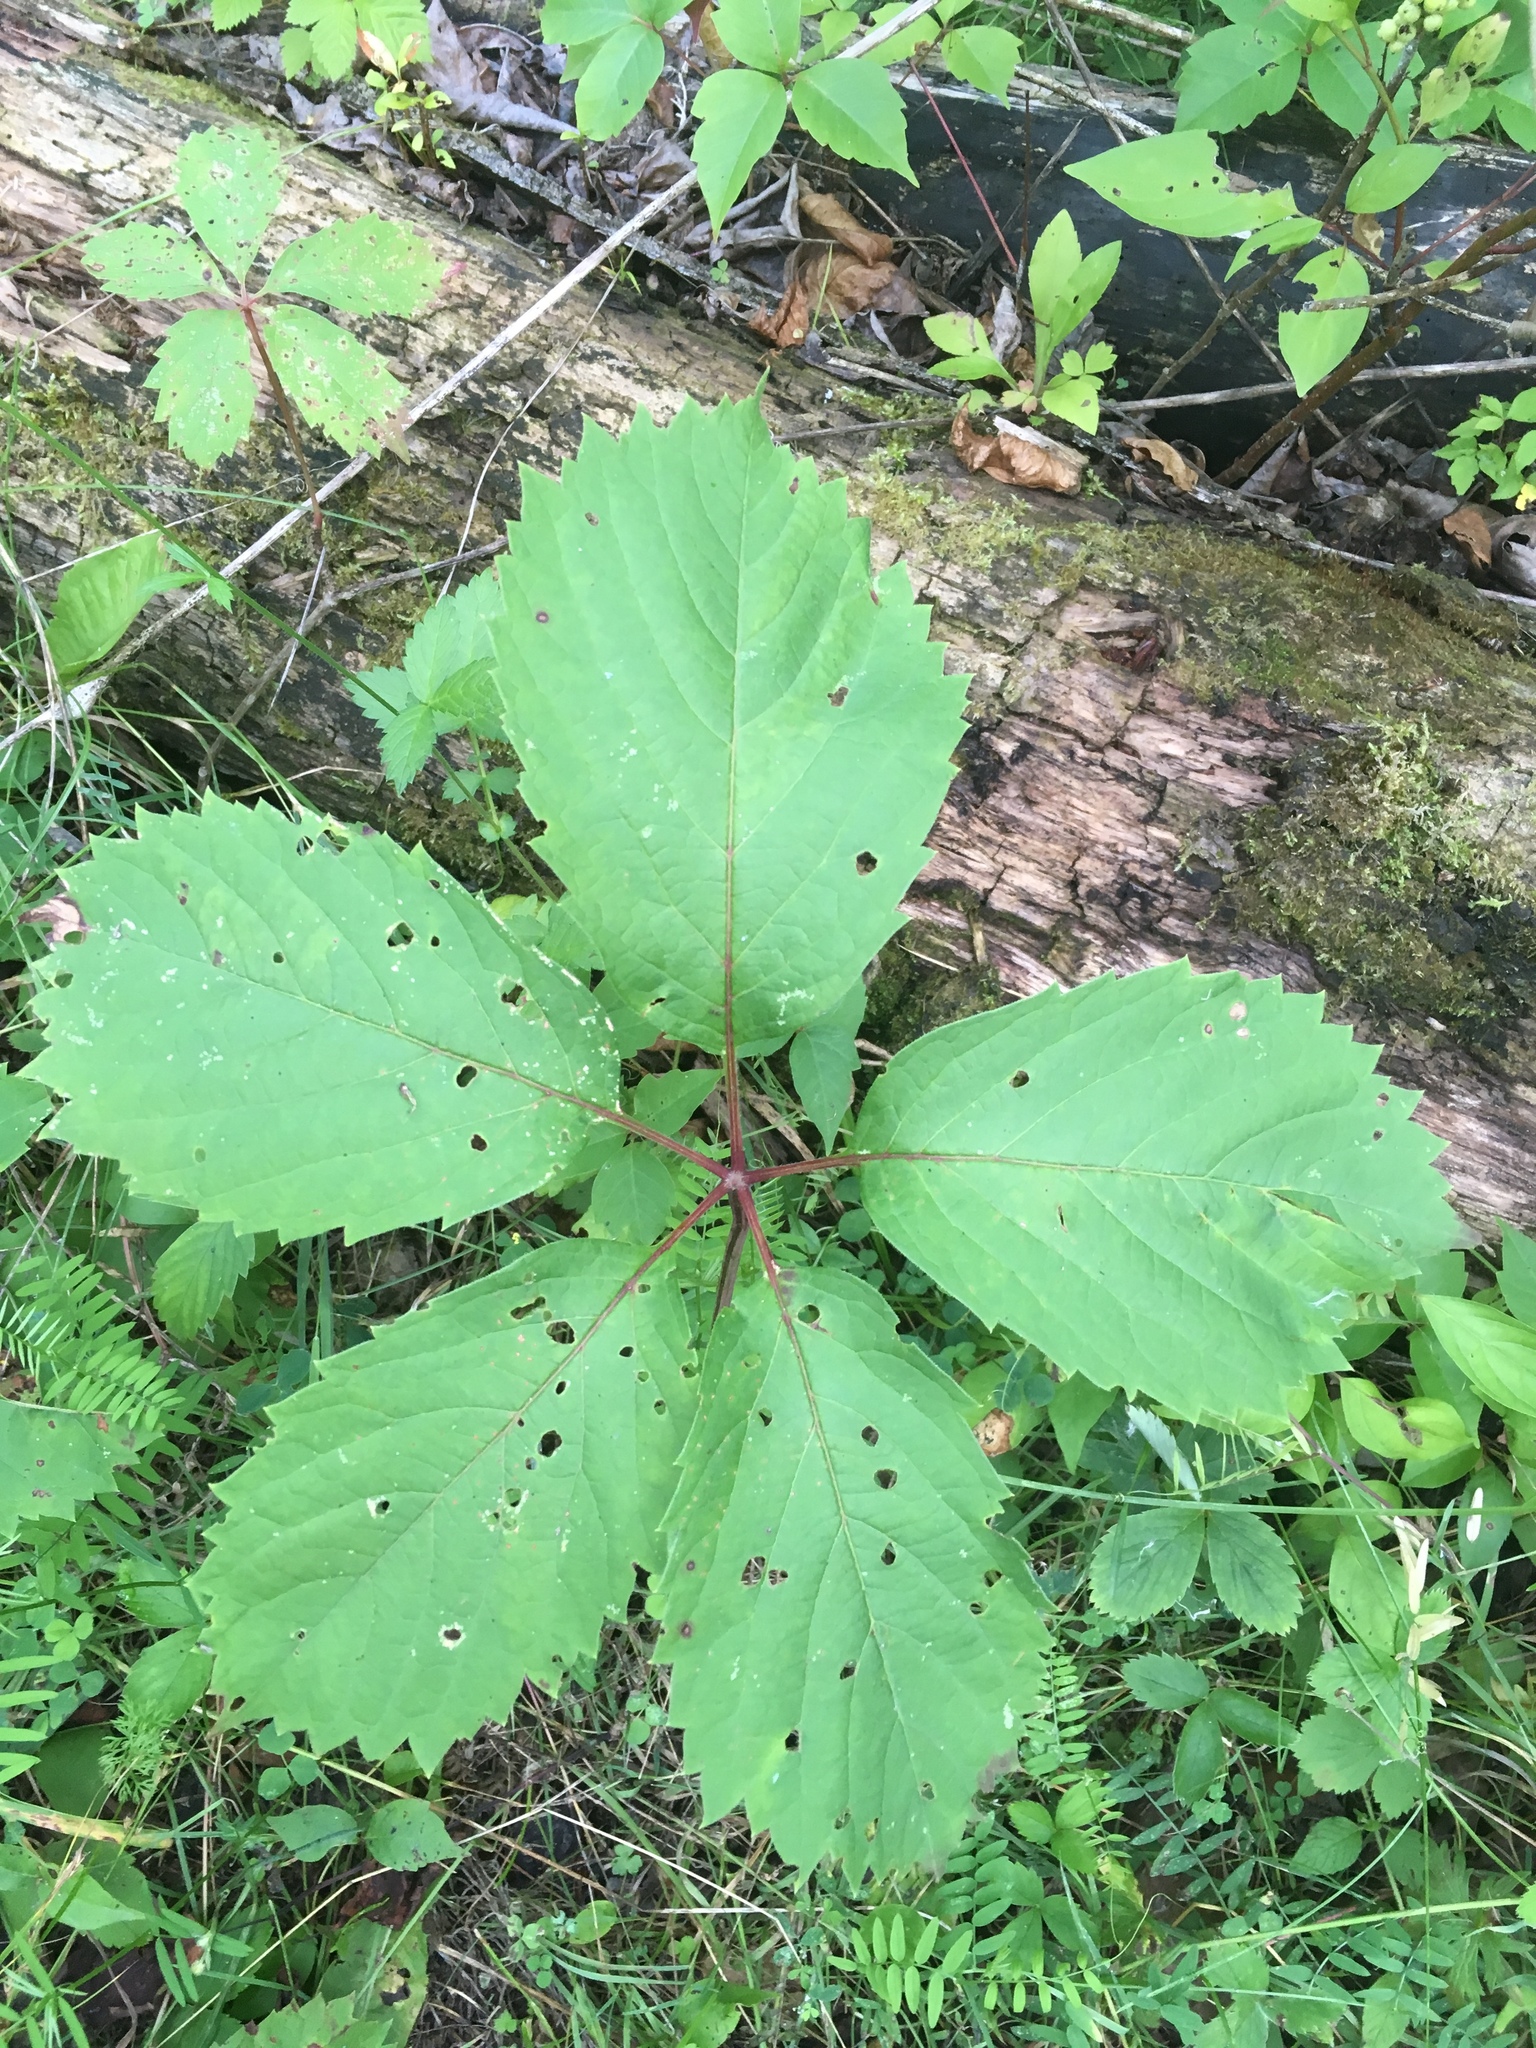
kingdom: Plantae
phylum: Tracheophyta
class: Magnoliopsida
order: Vitales
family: Vitaceae
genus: Parthenocissus
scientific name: Parthenocissus quinquefolia
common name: Virginia-creeper
